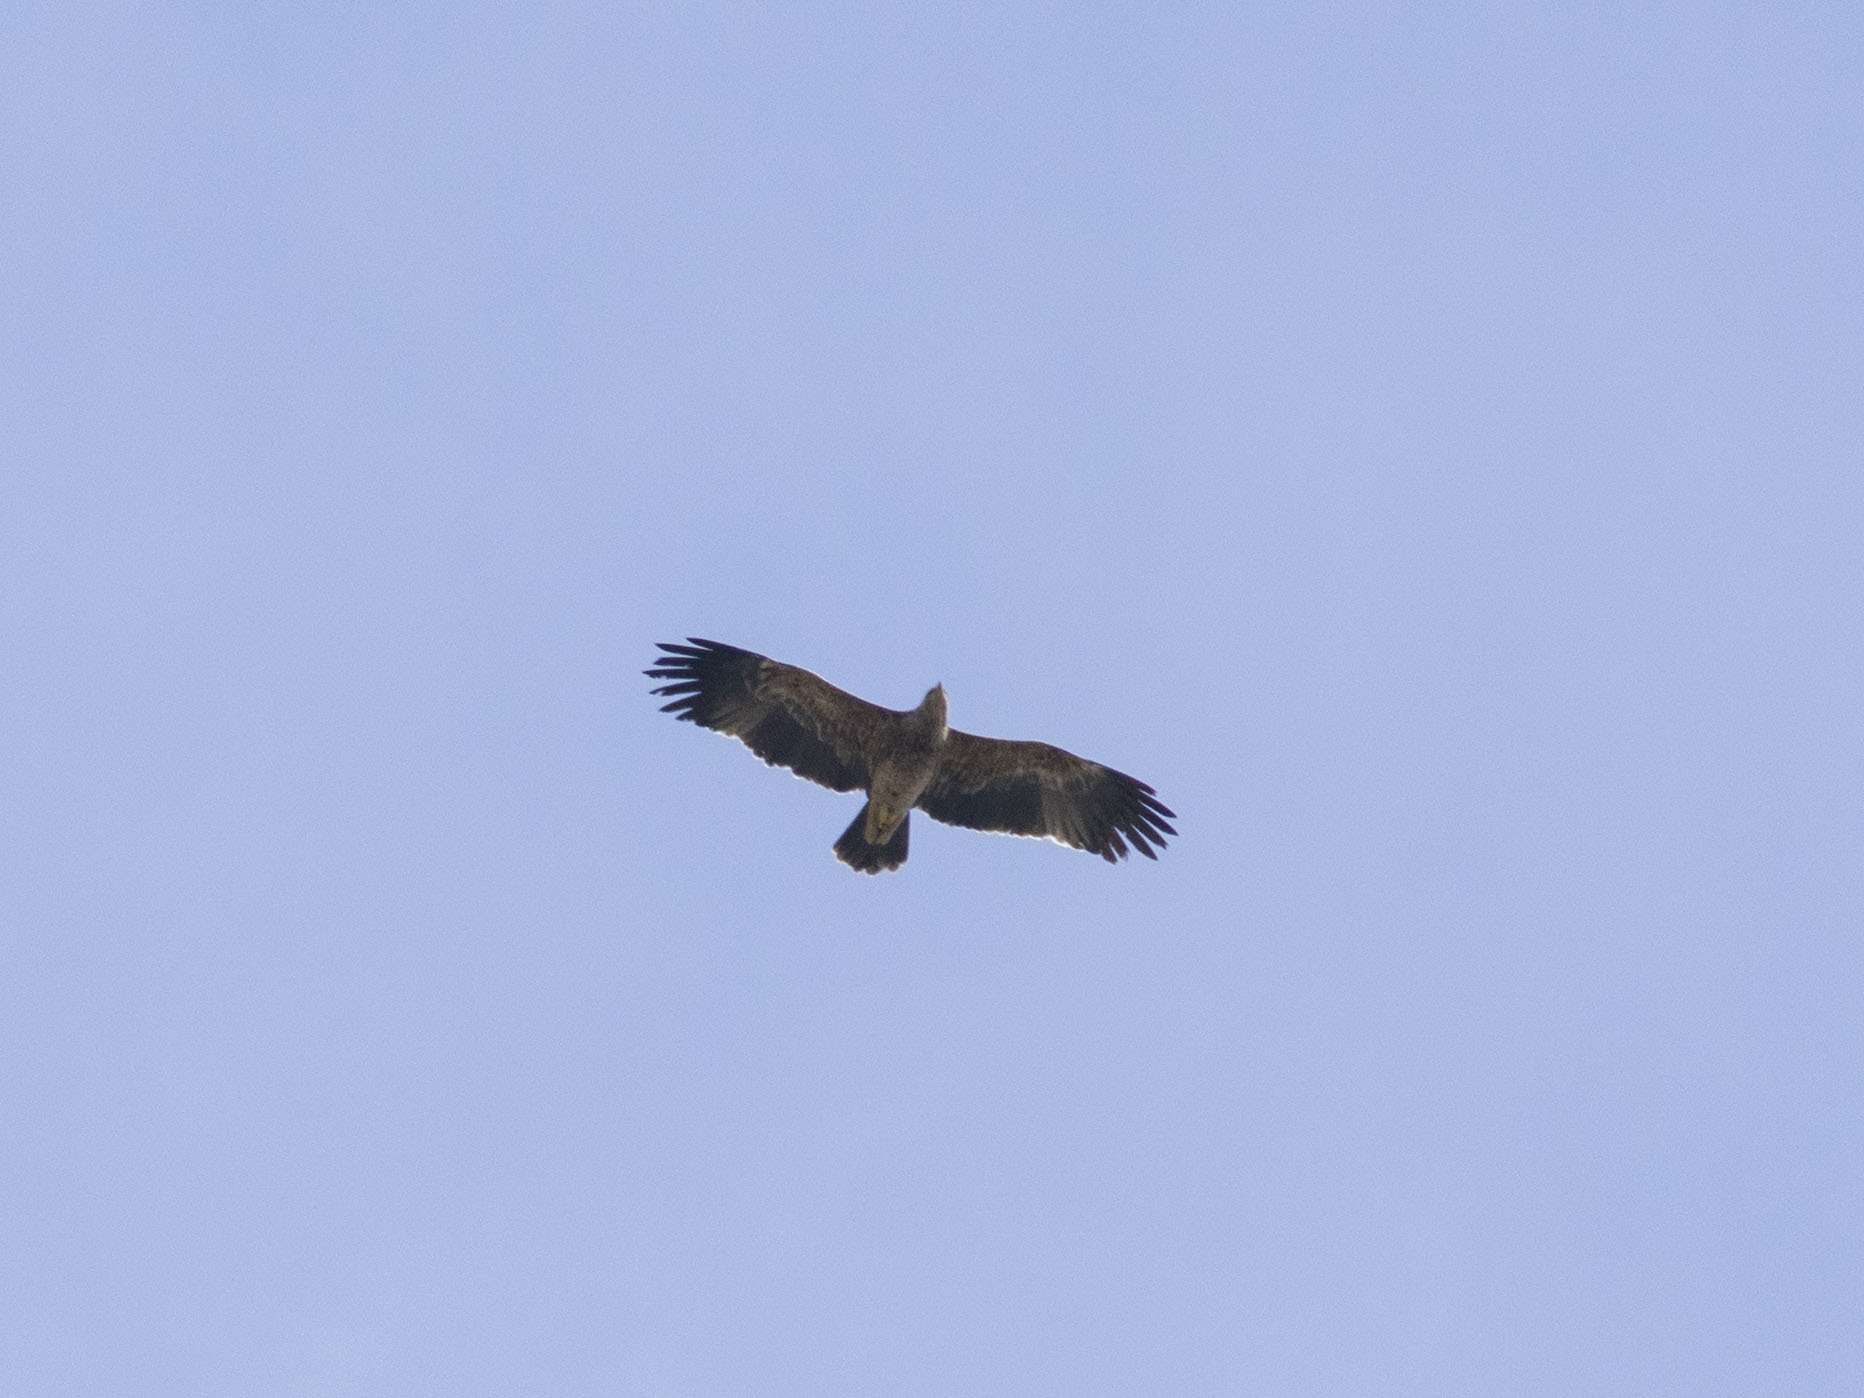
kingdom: Animalia
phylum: Chordata
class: Aves
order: Accipitriformes
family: Accipitridae
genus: Aquila
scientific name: Aquila heliaca
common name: Eastern imperial eagle
